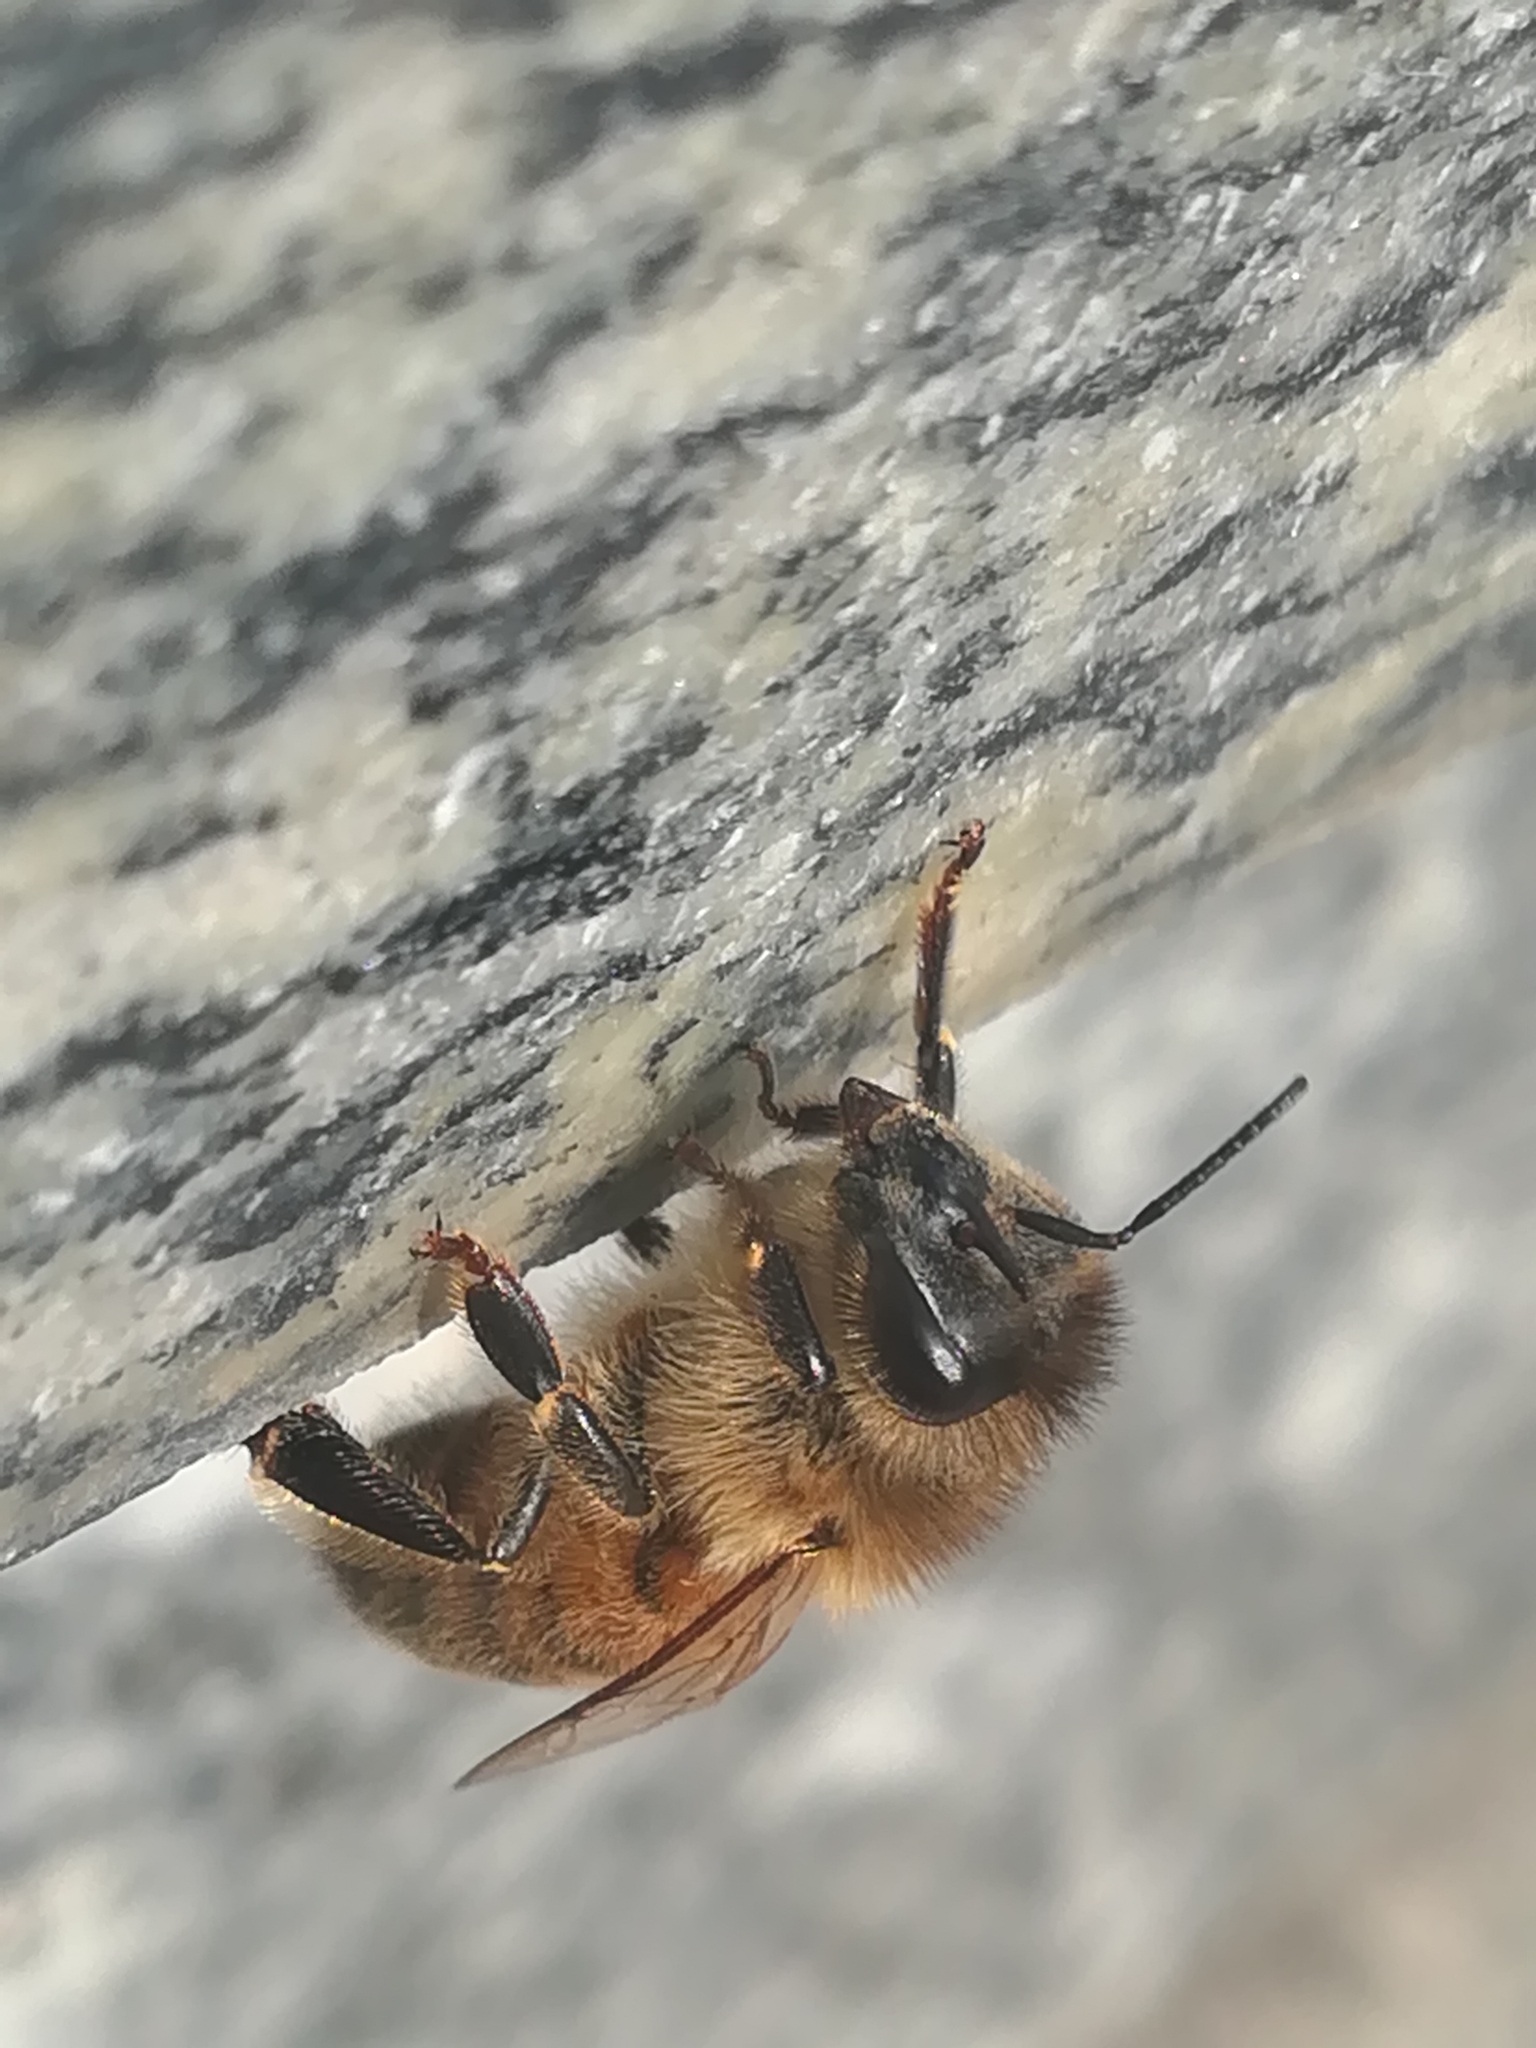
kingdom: Animalia
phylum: Arthropoda
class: Insecta
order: Hymenoptera
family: Apidae
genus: Apis
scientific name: Apis mellifera
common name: Honey bee
